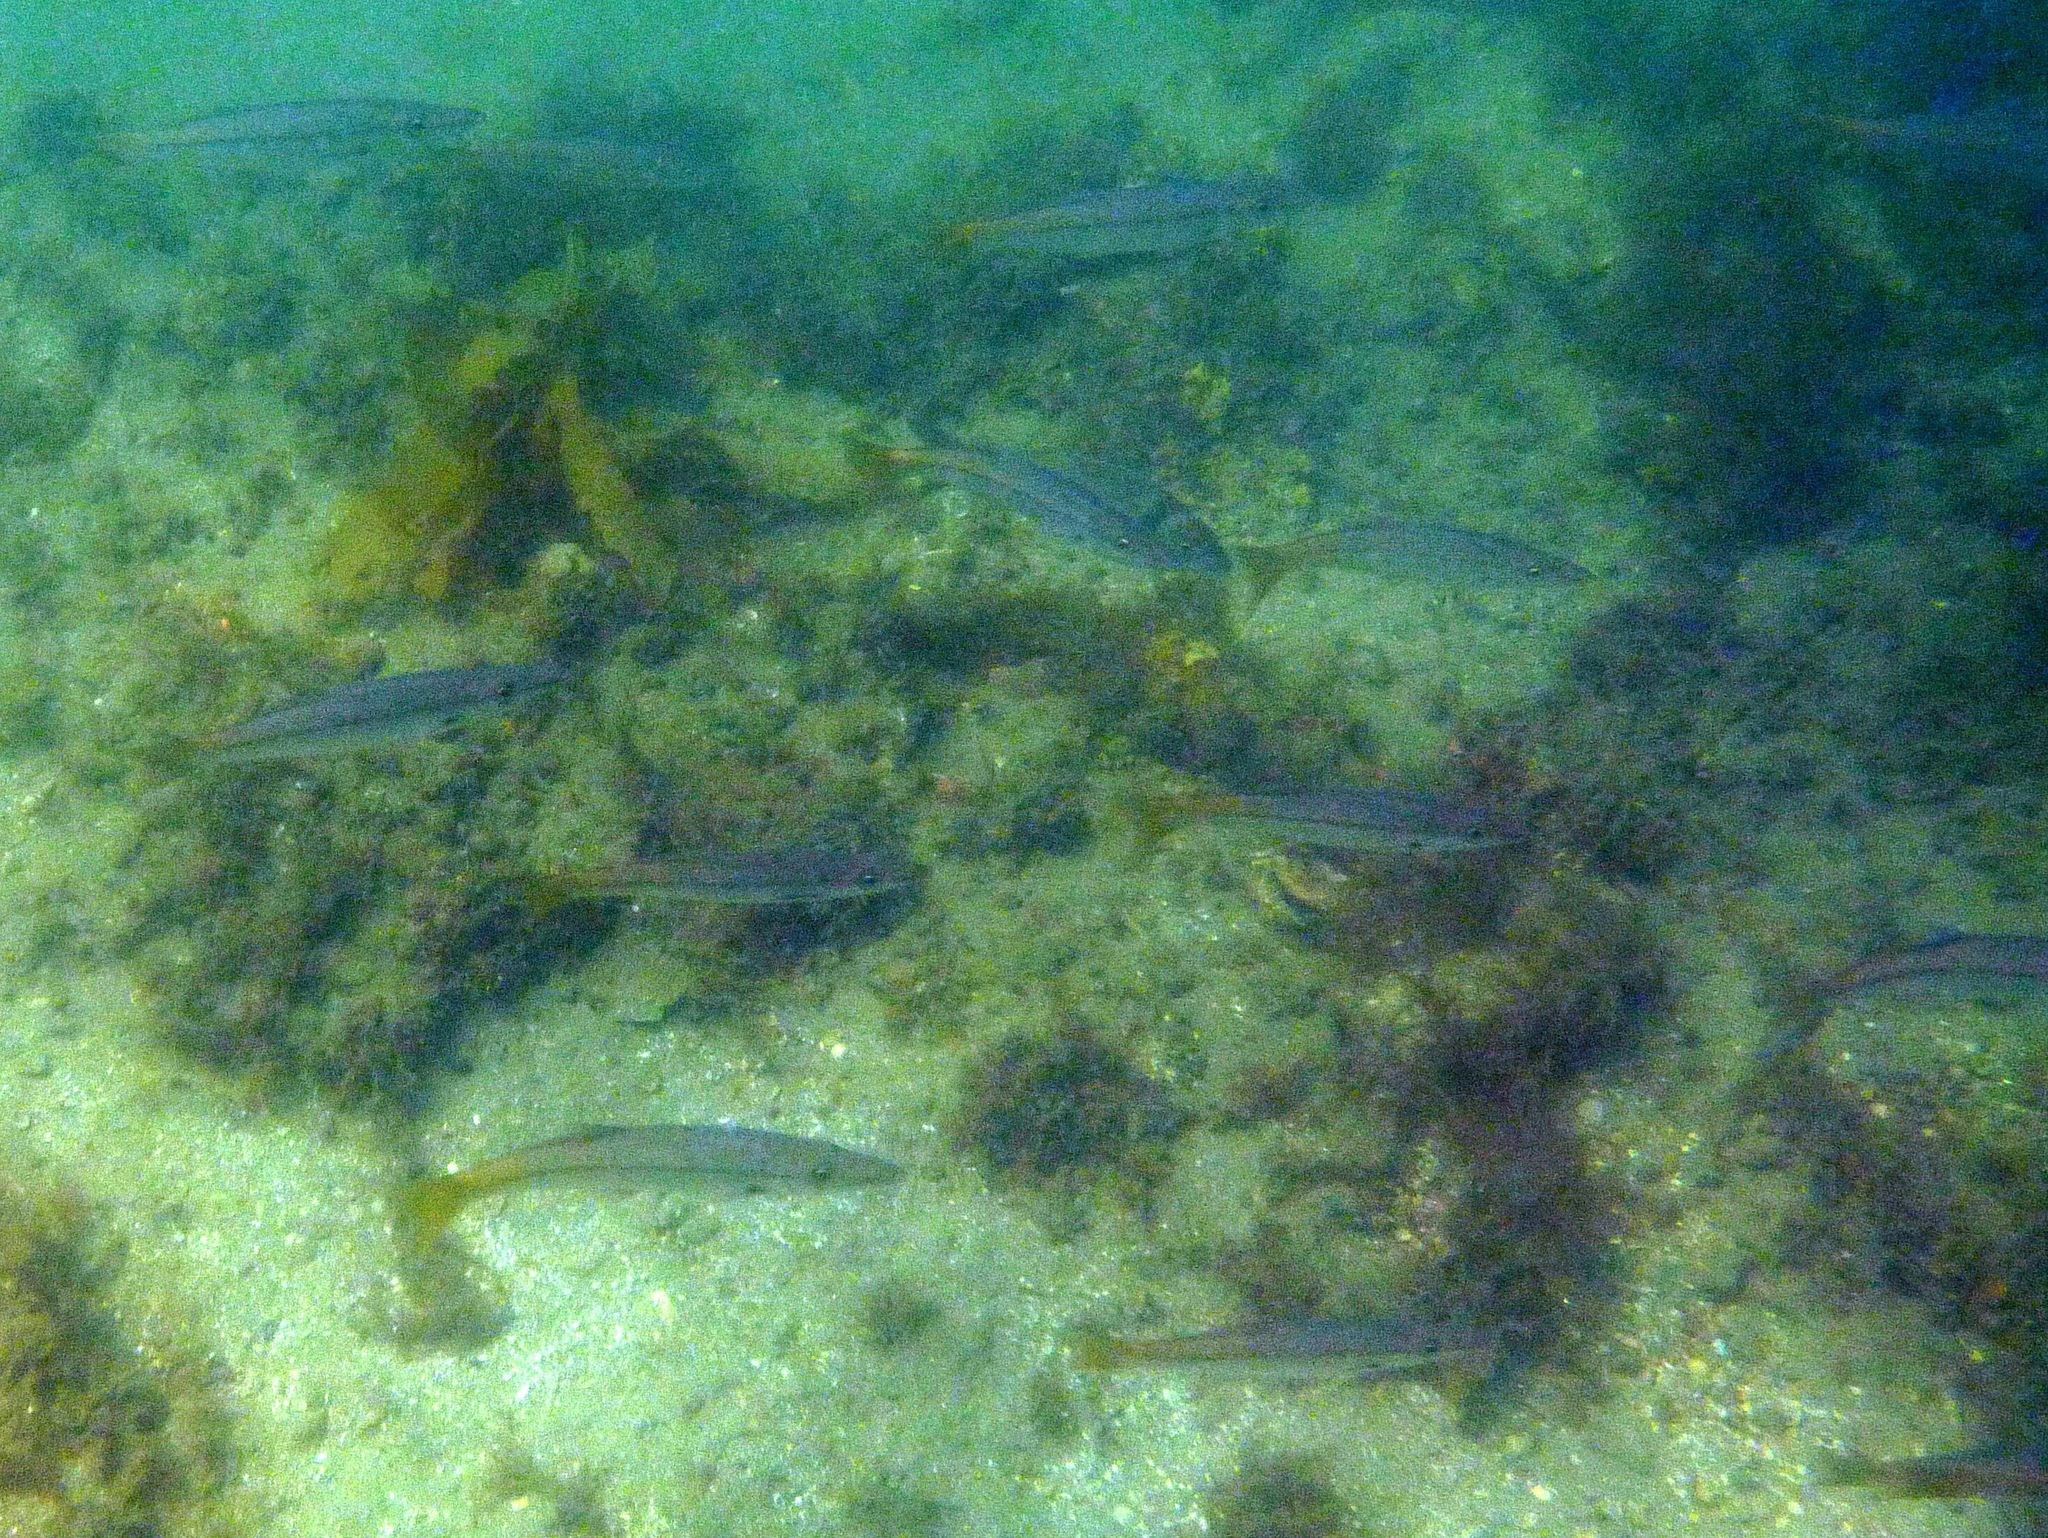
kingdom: Animalia
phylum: Chordata
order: Perciformes
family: Dinolestidae
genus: Dinolestes
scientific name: Dinolestes lewini
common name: Jack pike
